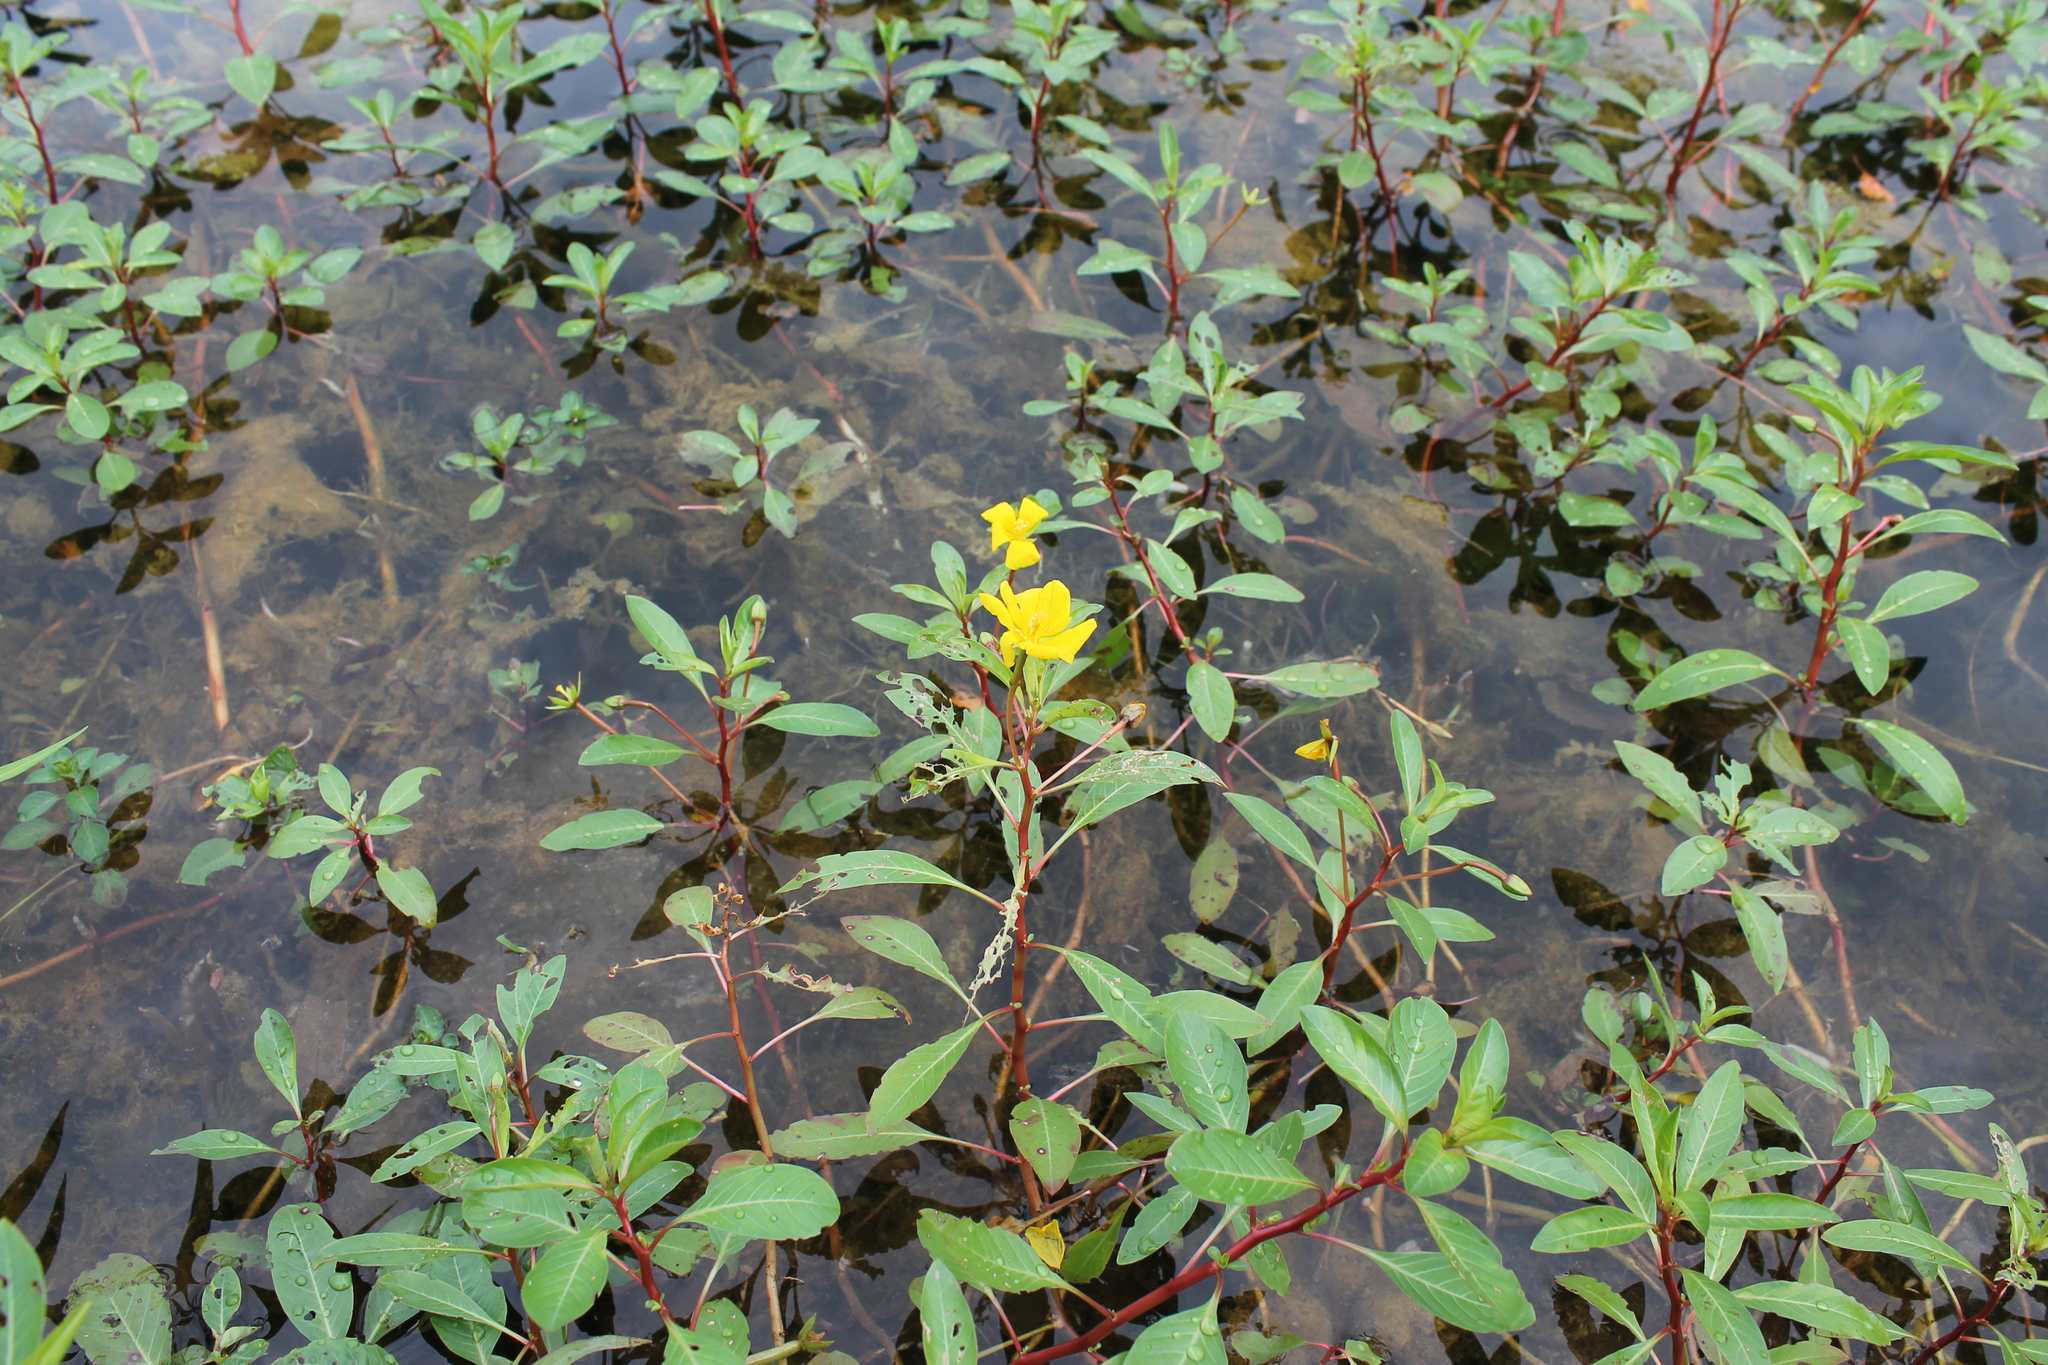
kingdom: Plantae
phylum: Tracheophyta
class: Magnoliopsida
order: Myrtales
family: Onagraceae
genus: Ludwigia
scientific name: Ludwigia peploides
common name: Floating primrose-willow
